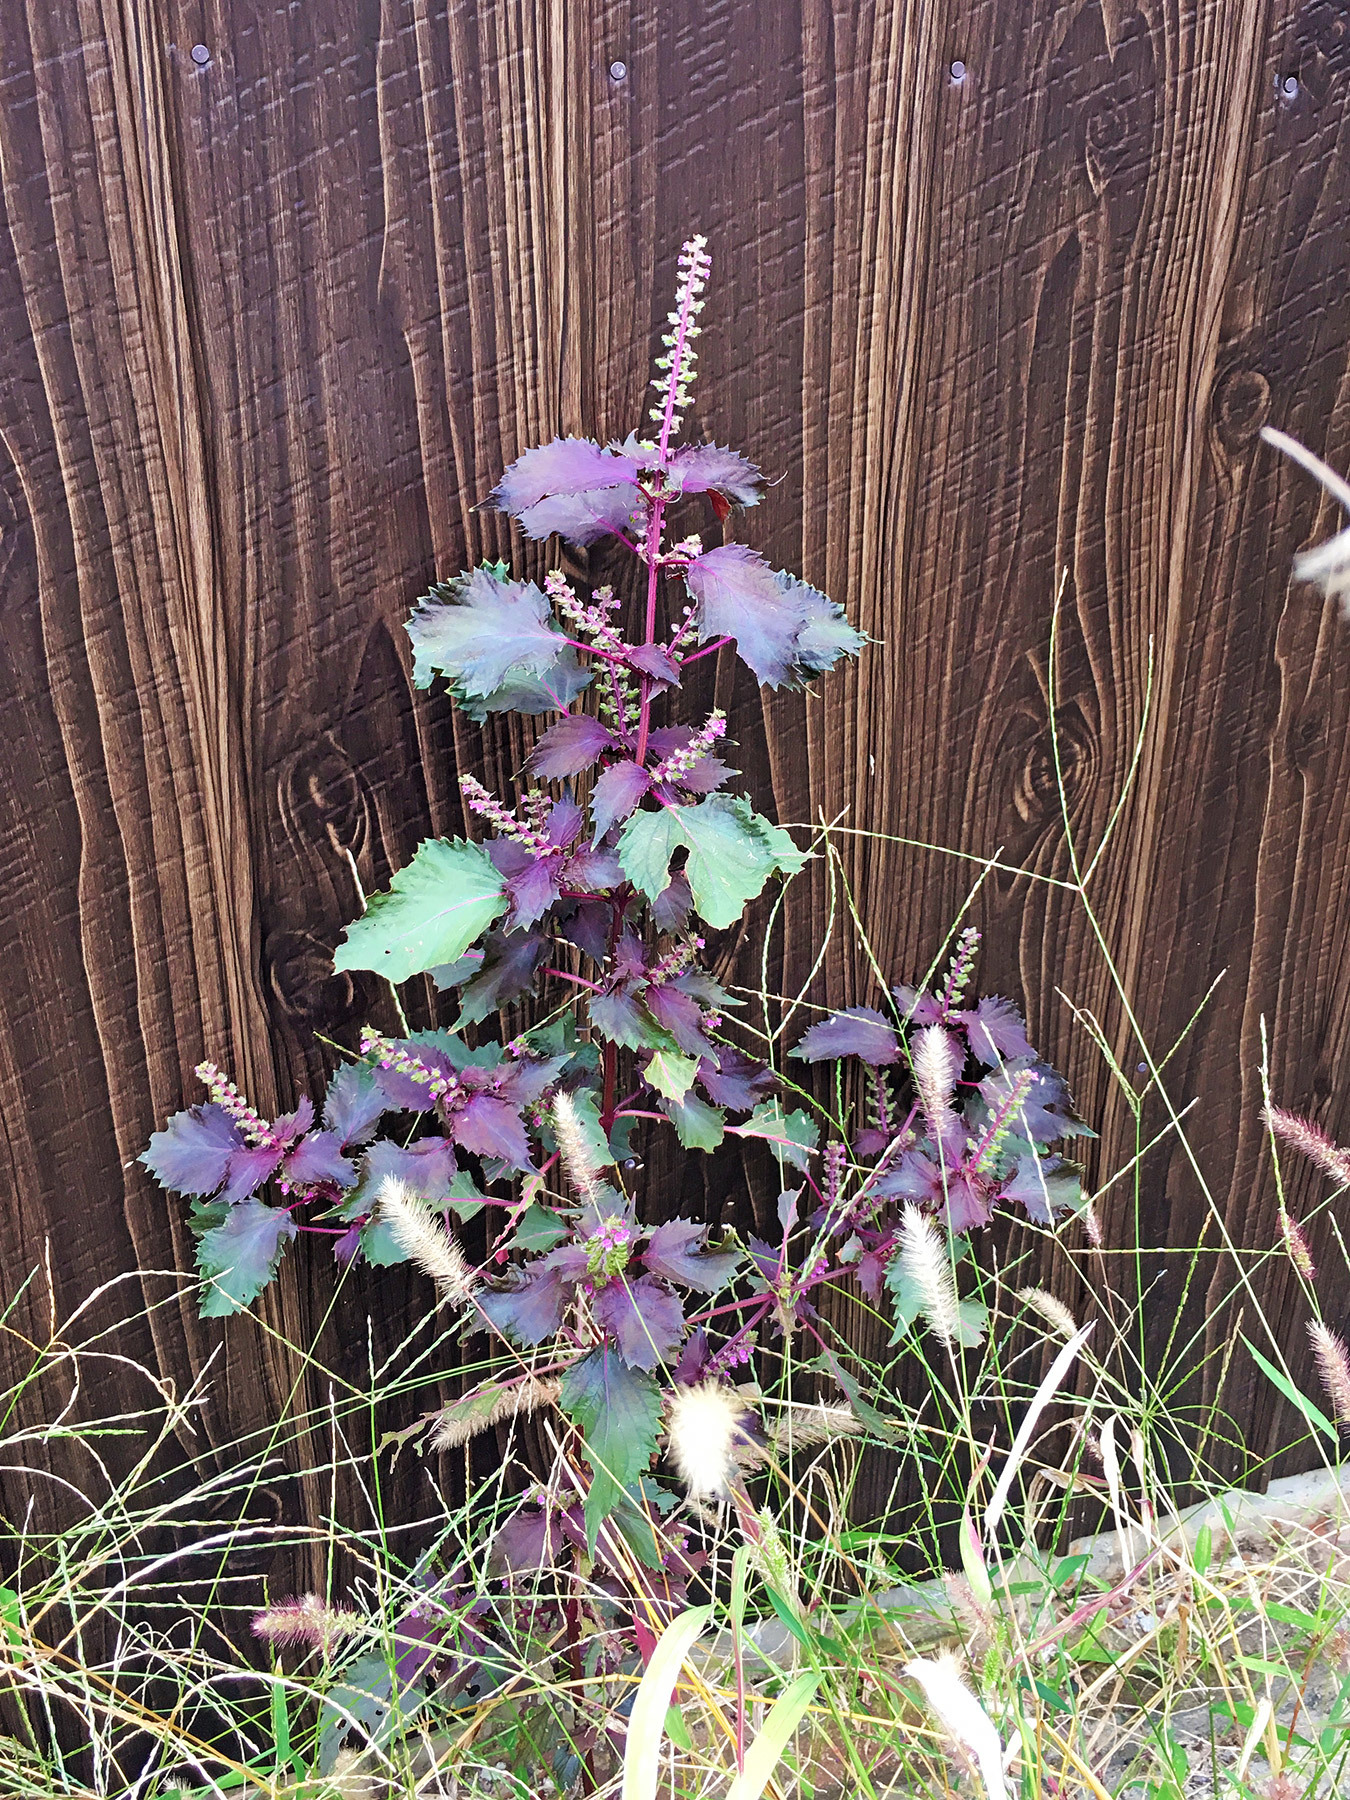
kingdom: Plantae
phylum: Tracheophyta
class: Magnoliopsida
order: Lamiales
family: Lamiaceae
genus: Perilla
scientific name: Perilla frutescens
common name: Perilla
